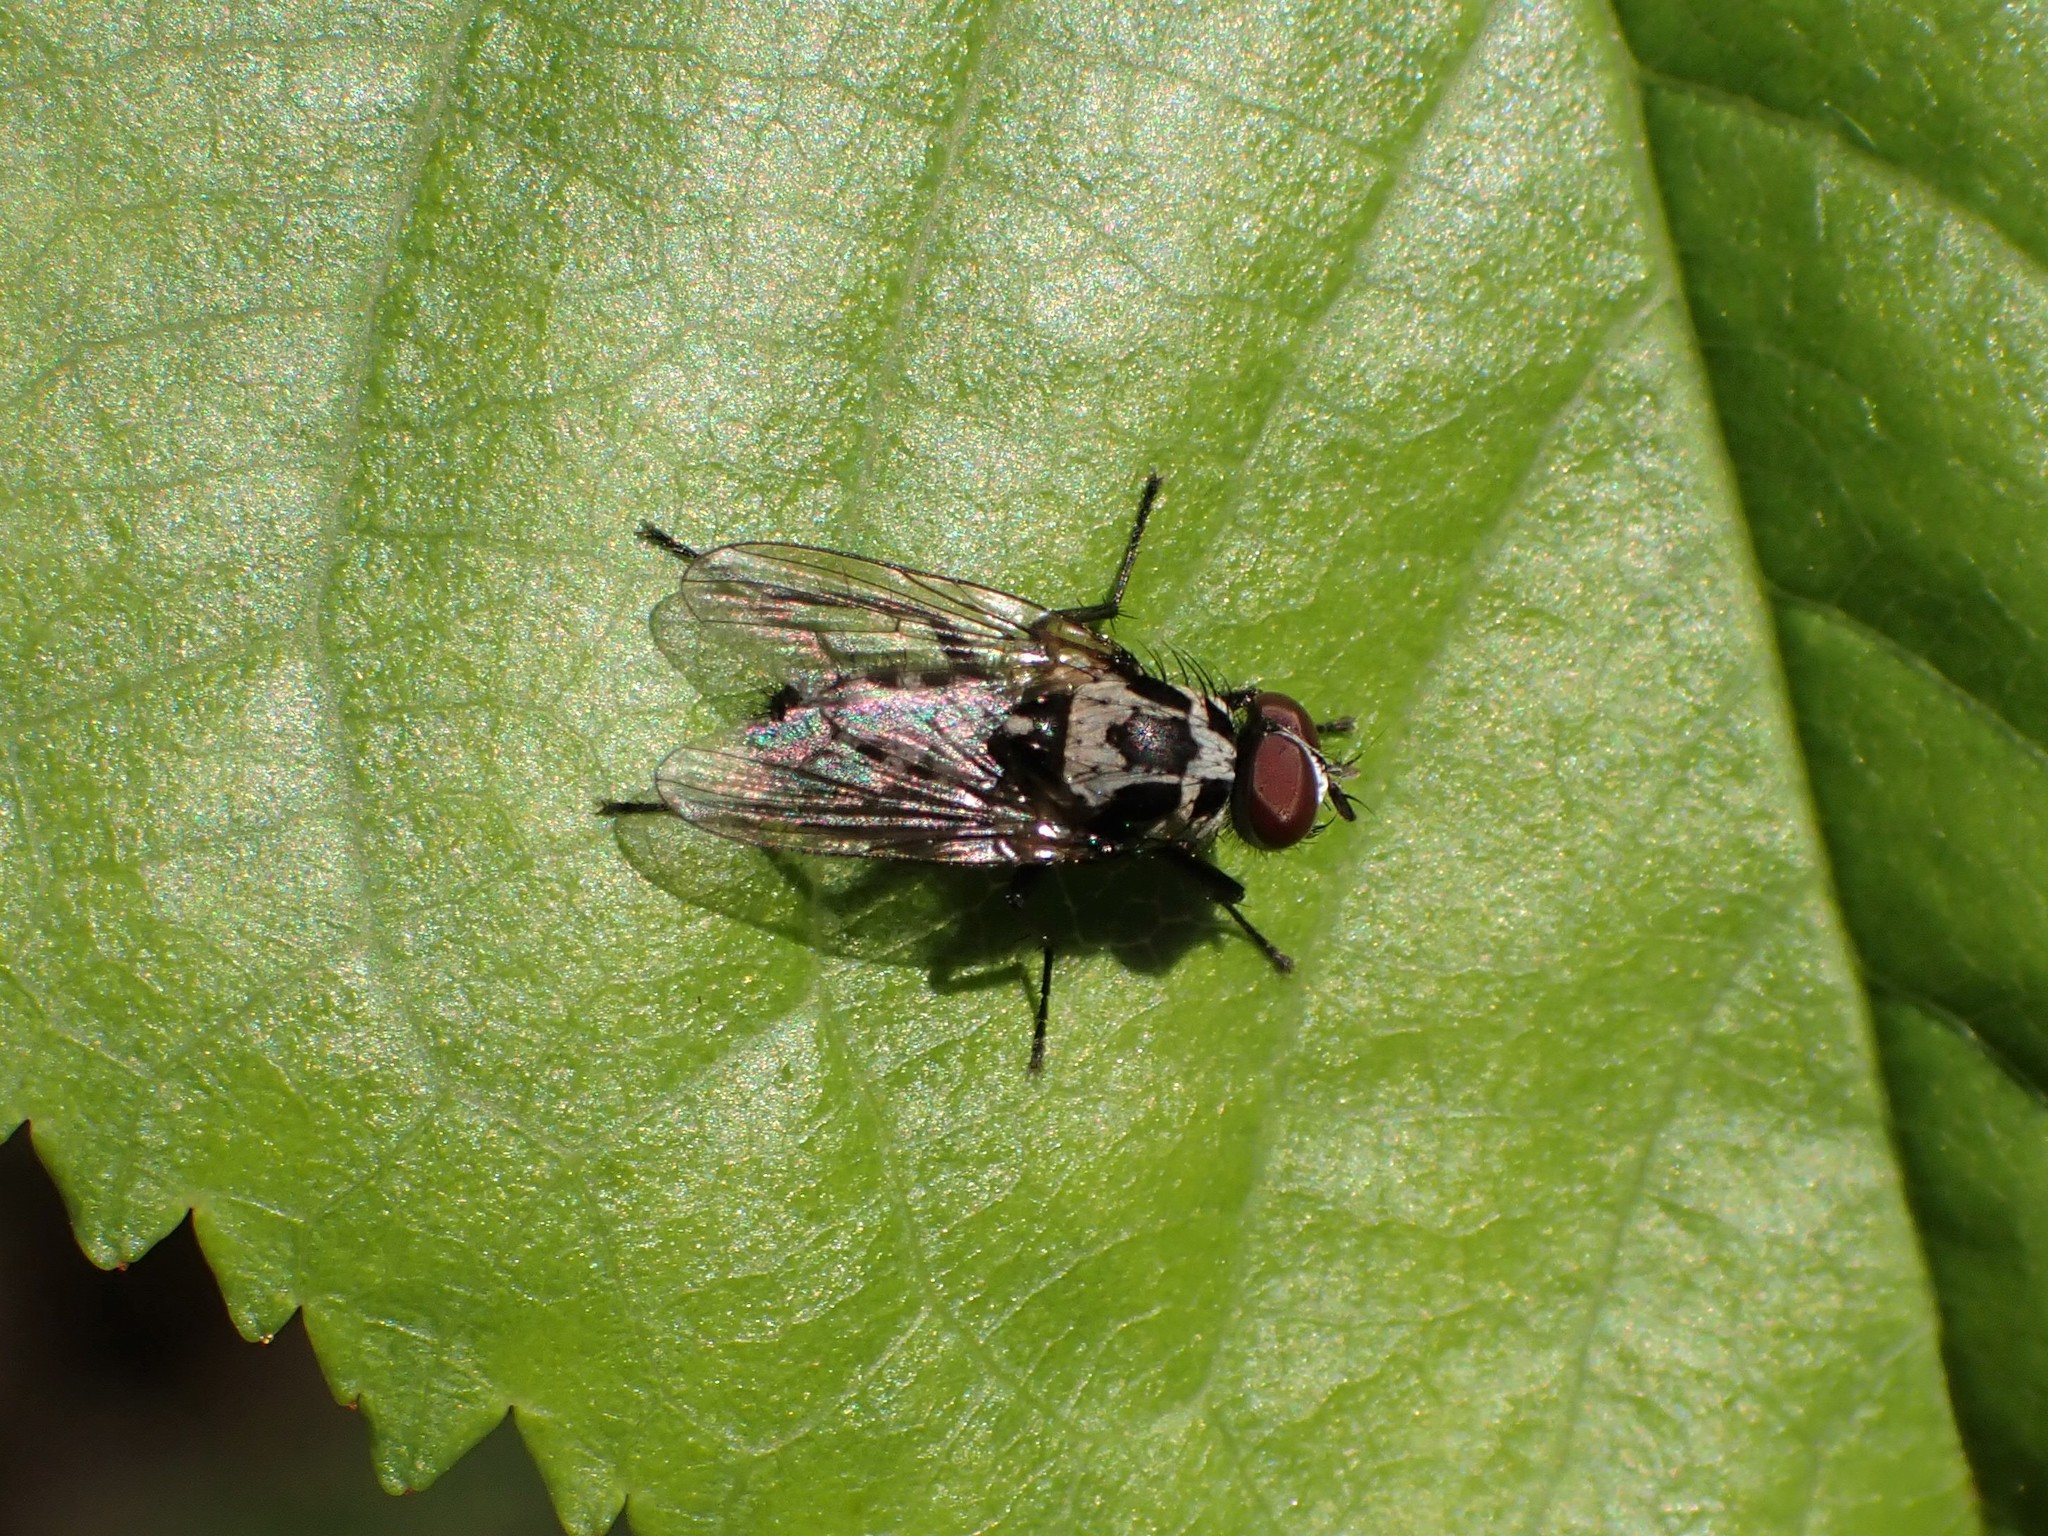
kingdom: Animalia
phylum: Arthropoda
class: Insecta
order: Diptera
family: Anthomyiidae
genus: Anthomyia
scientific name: Anthomyia procellaris
